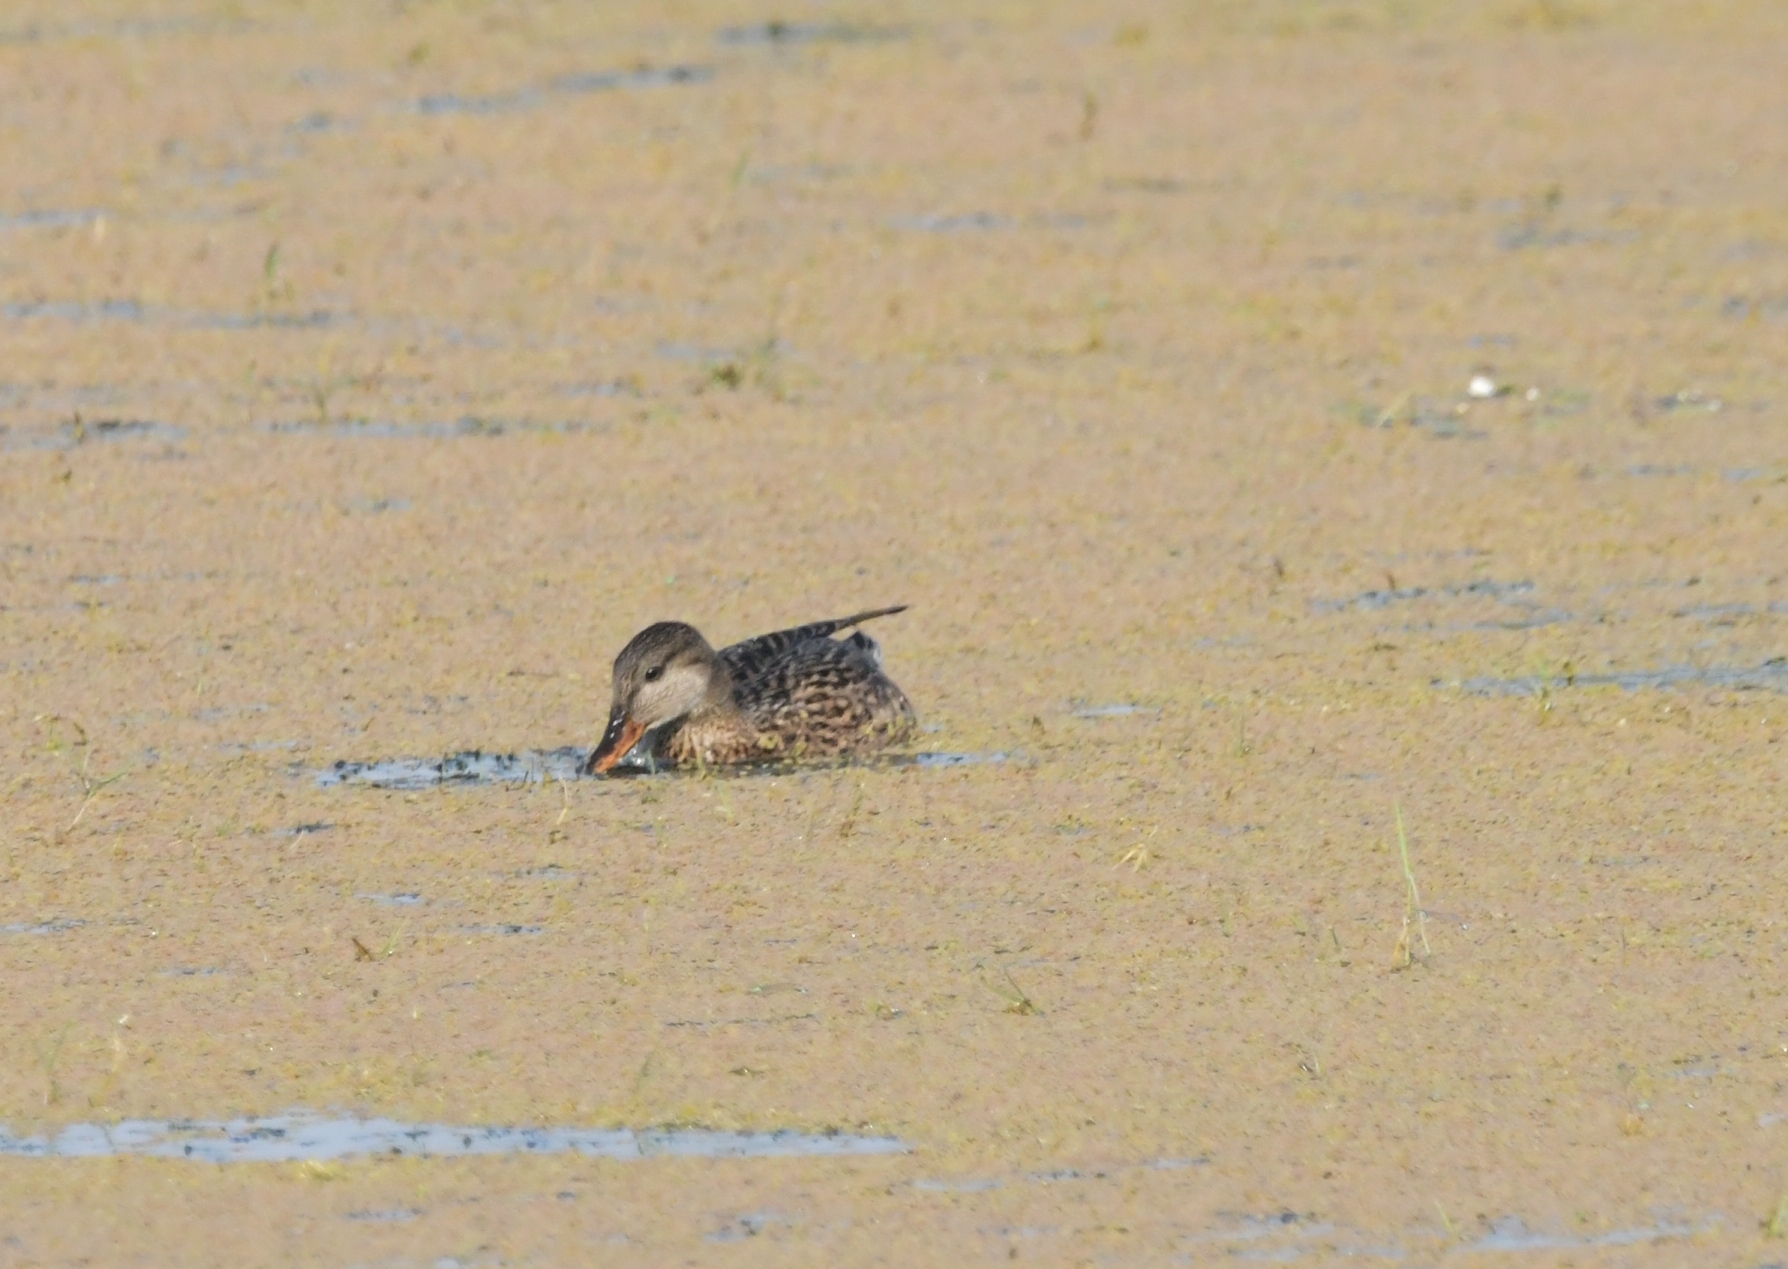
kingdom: Animalia
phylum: Chordata
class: Aves
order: Anseriformes
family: Anatidae
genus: Mareca
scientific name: Mareca strepera
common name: Gadwall
